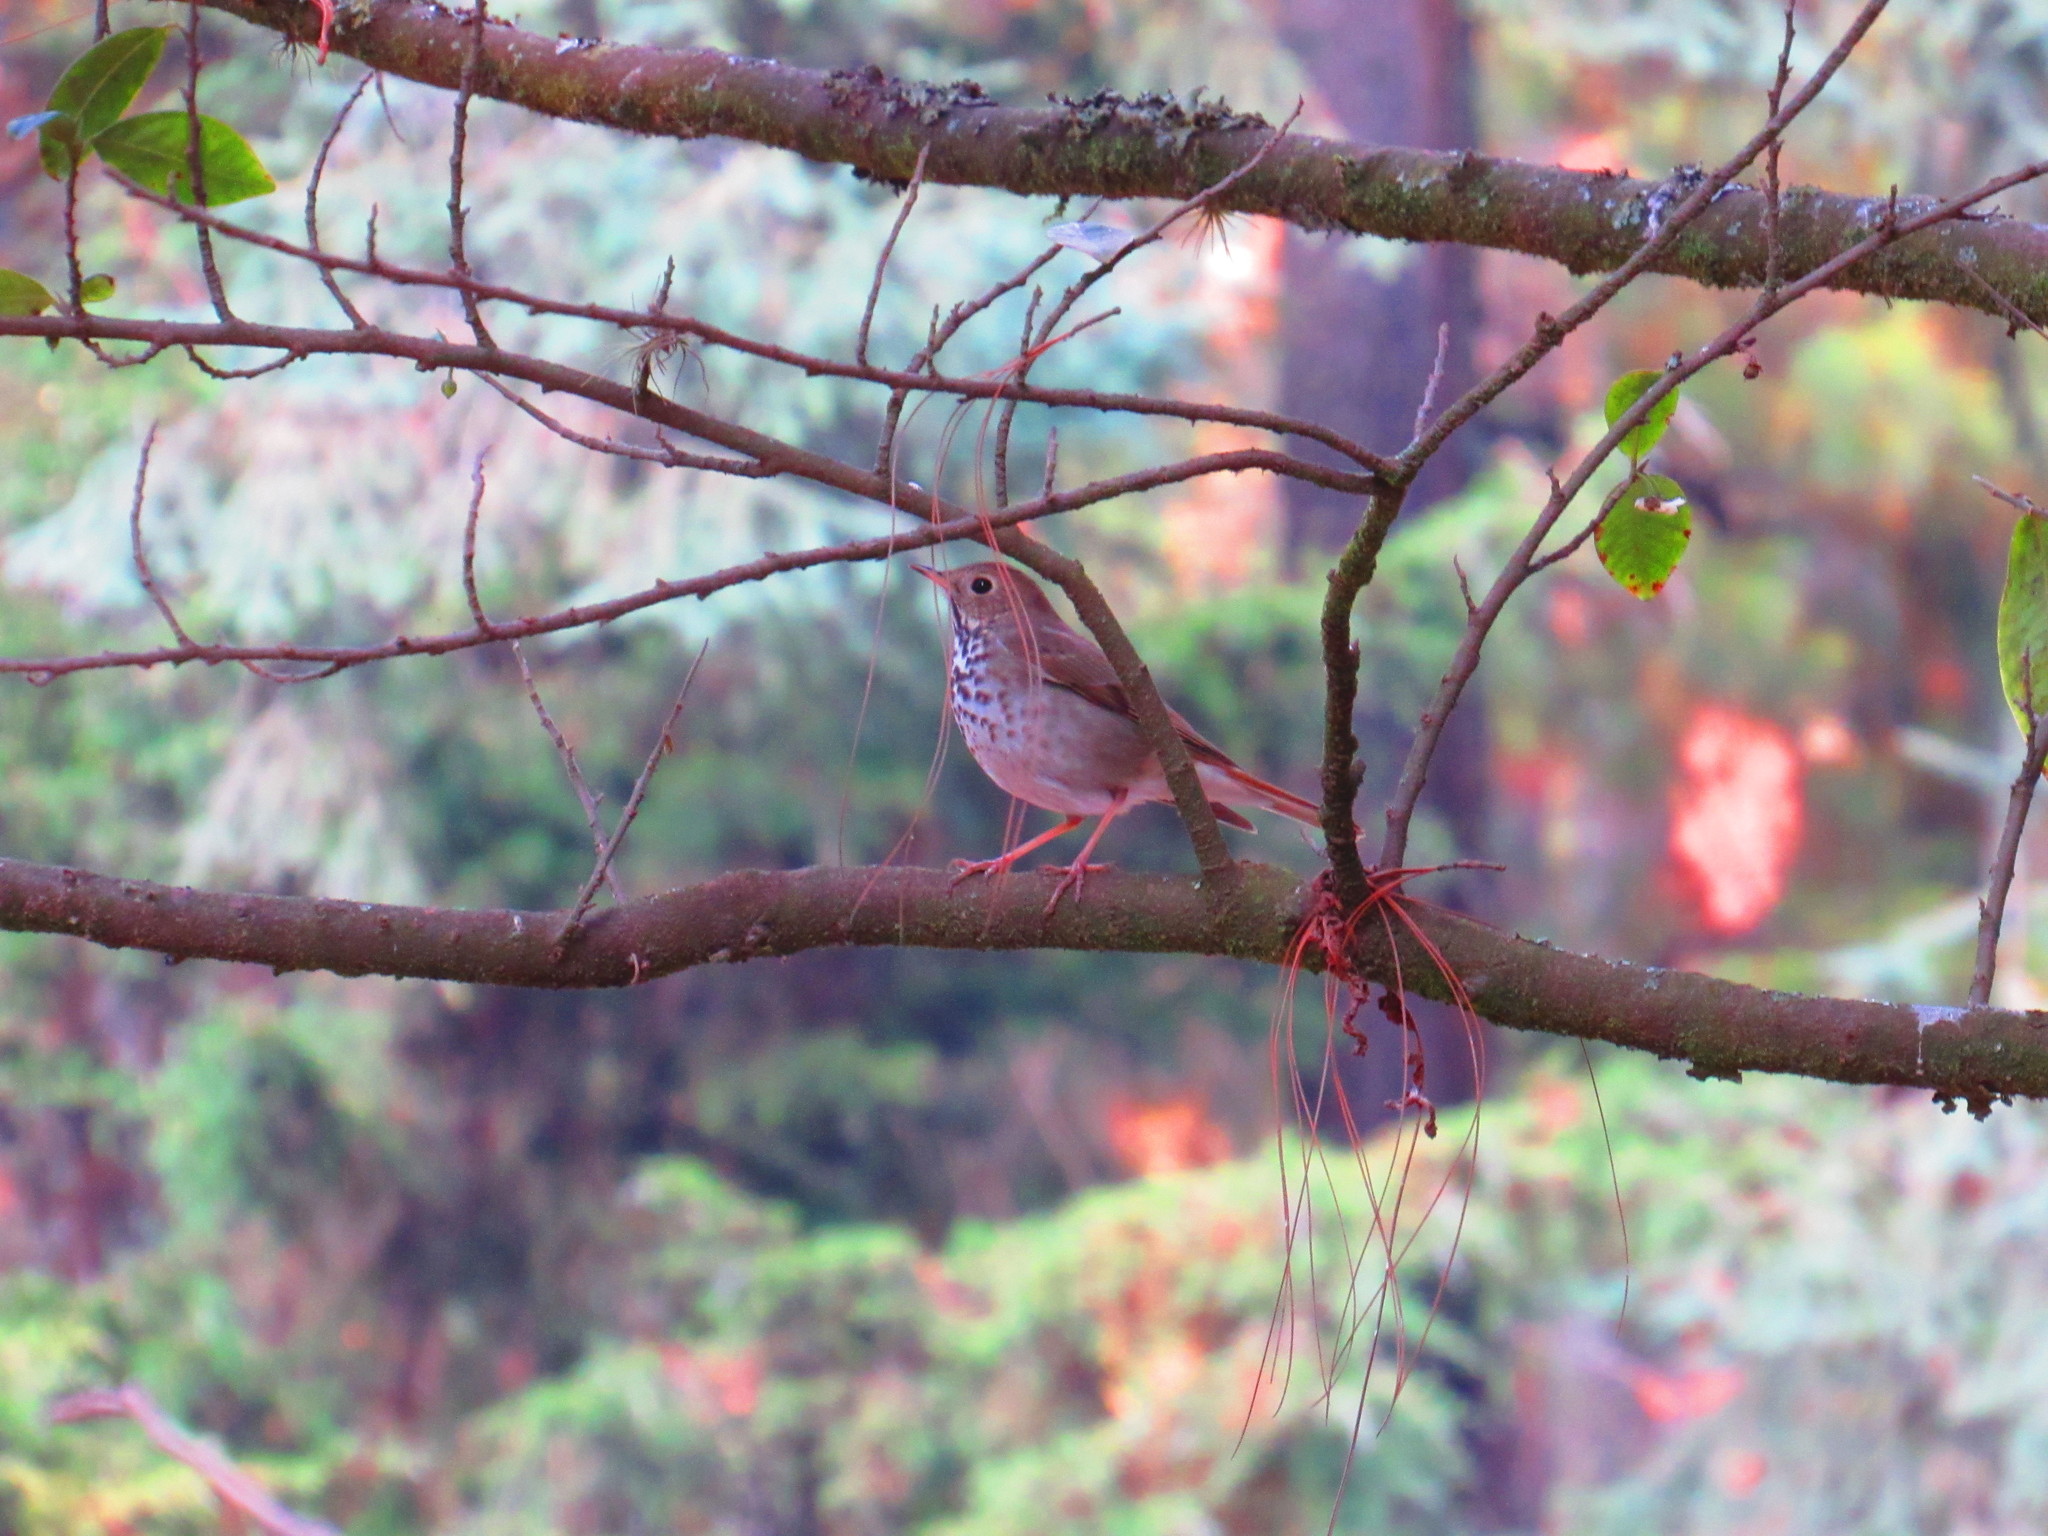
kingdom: Animalia
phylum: Chordata
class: Aves
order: Passeriformes
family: Turdidae
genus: Catharus
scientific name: Catharus guttatus
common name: Hermit thrush
